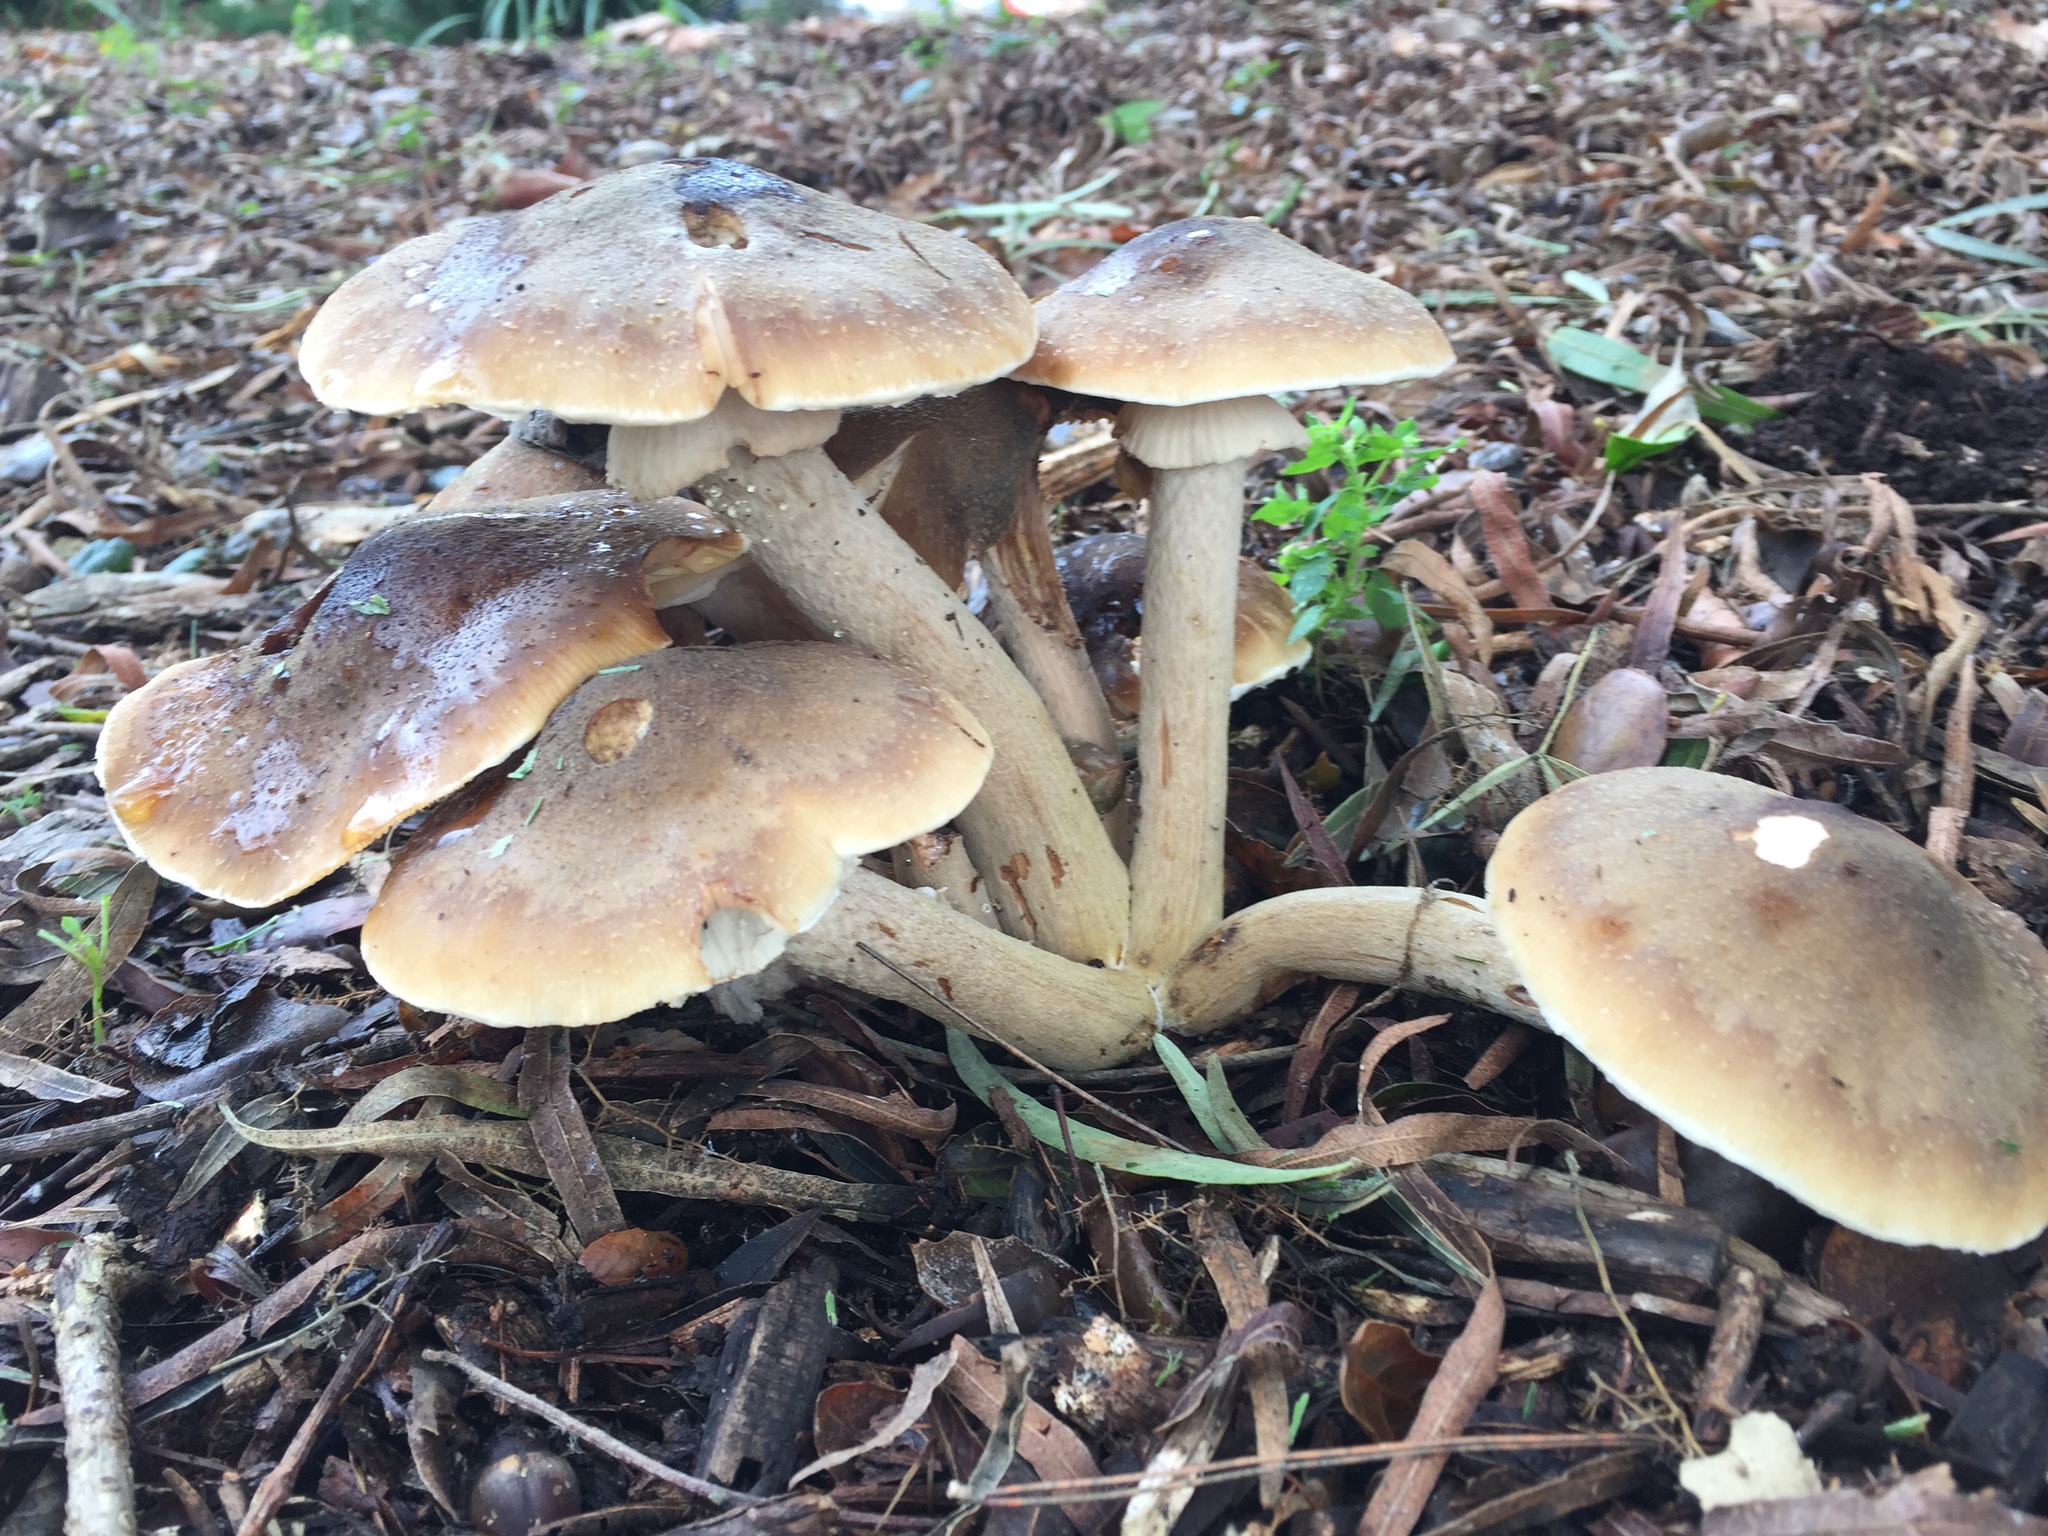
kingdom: Fungi
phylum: Basidiomycota
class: Agaricomycetes
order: Agaricales
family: Physalacriaceae
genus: Armillaria
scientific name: Armillaria mellea
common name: Honey fungus
